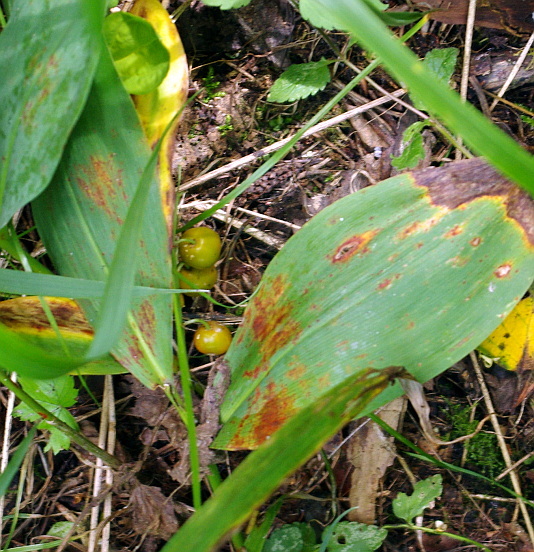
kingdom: Plantae
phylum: Tracheophyta
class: Liliopsida
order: Asparagales
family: Asparagaceae
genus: Convallaria
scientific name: Convallaria majalis
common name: Lily-of-the-valley
